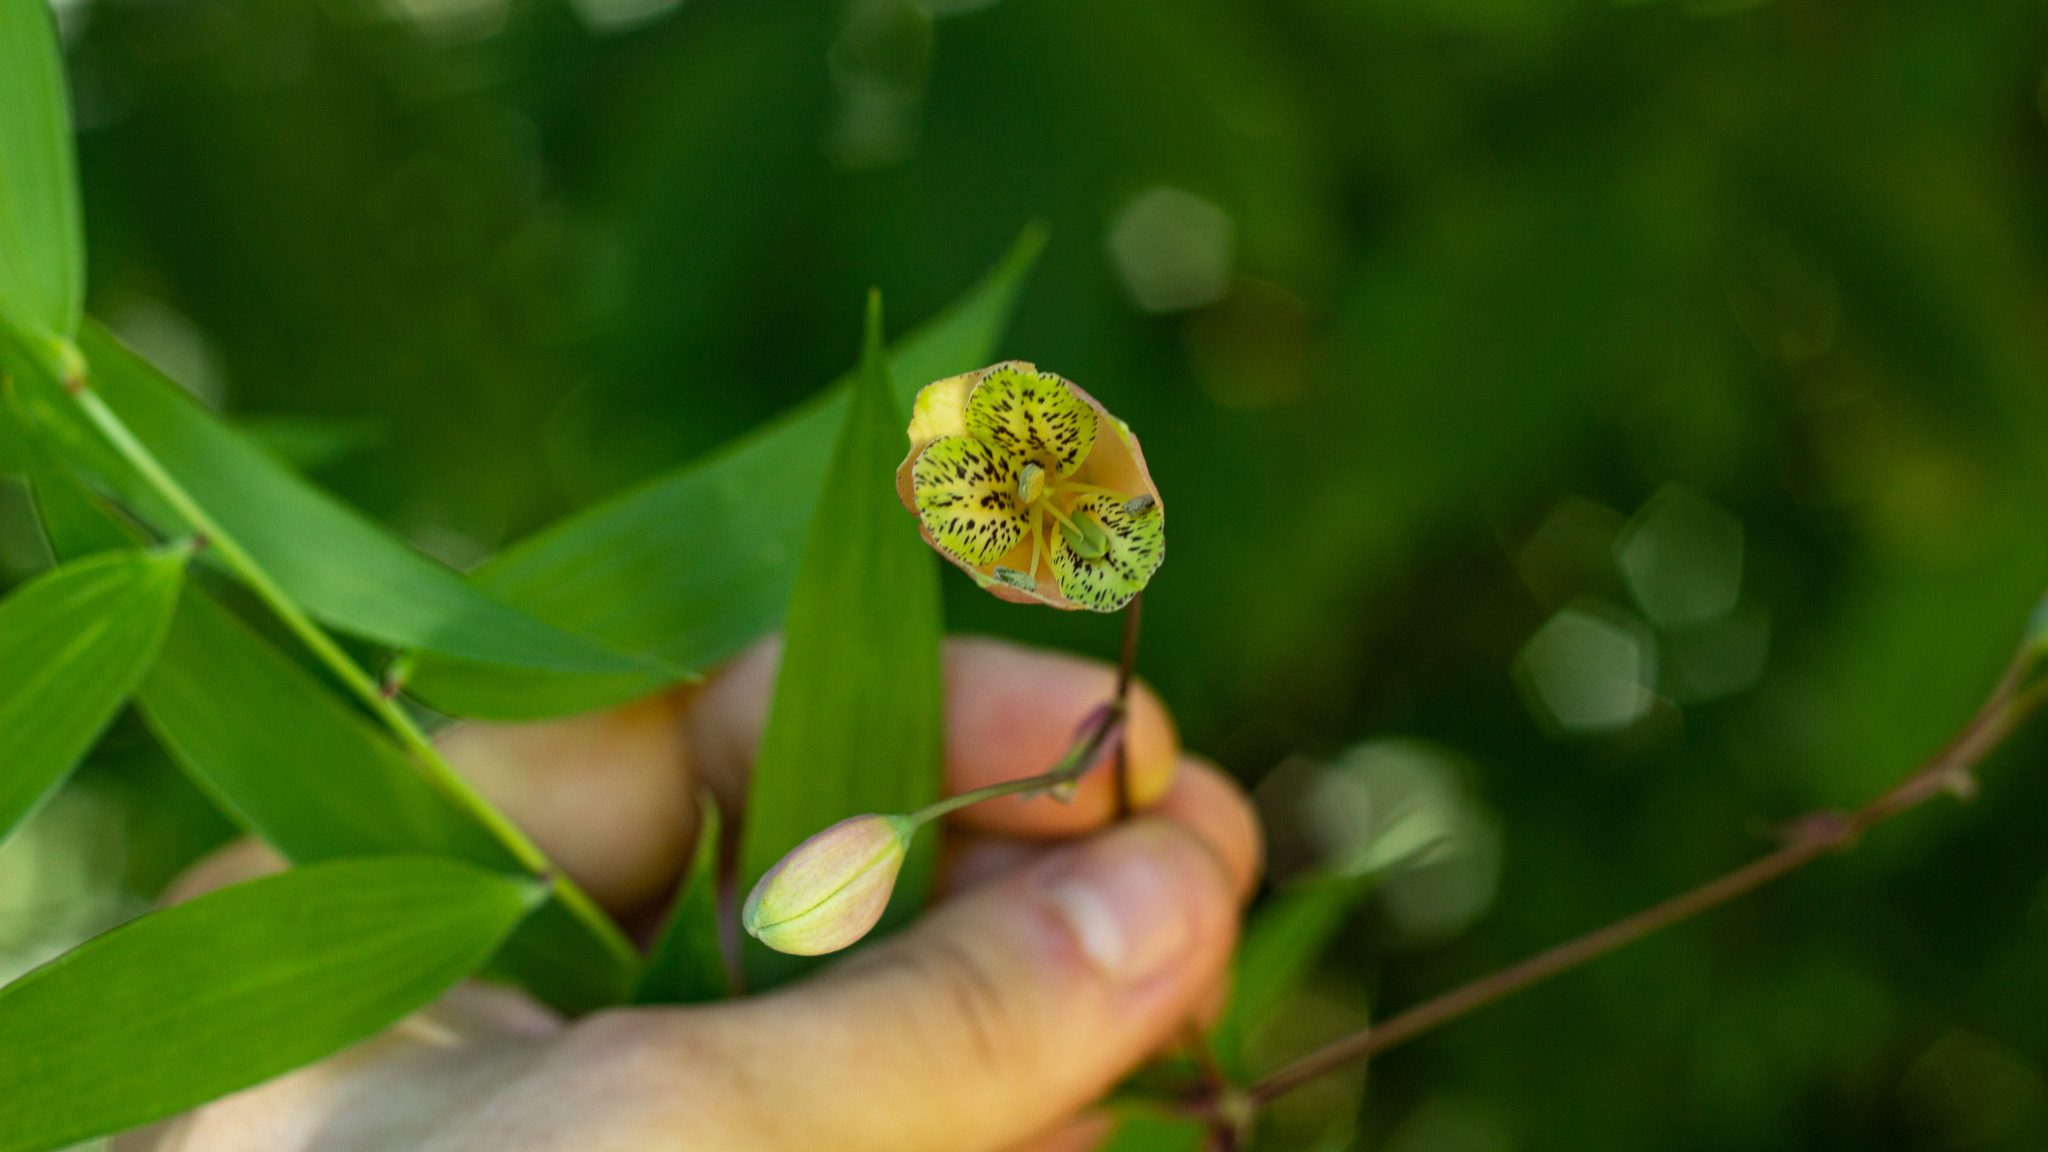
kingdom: Plantae
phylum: Tracheophyta
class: Liliopsida
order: Liliales
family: Alstroemeriaceae
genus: Bomarea
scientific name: Bomarea edulis
